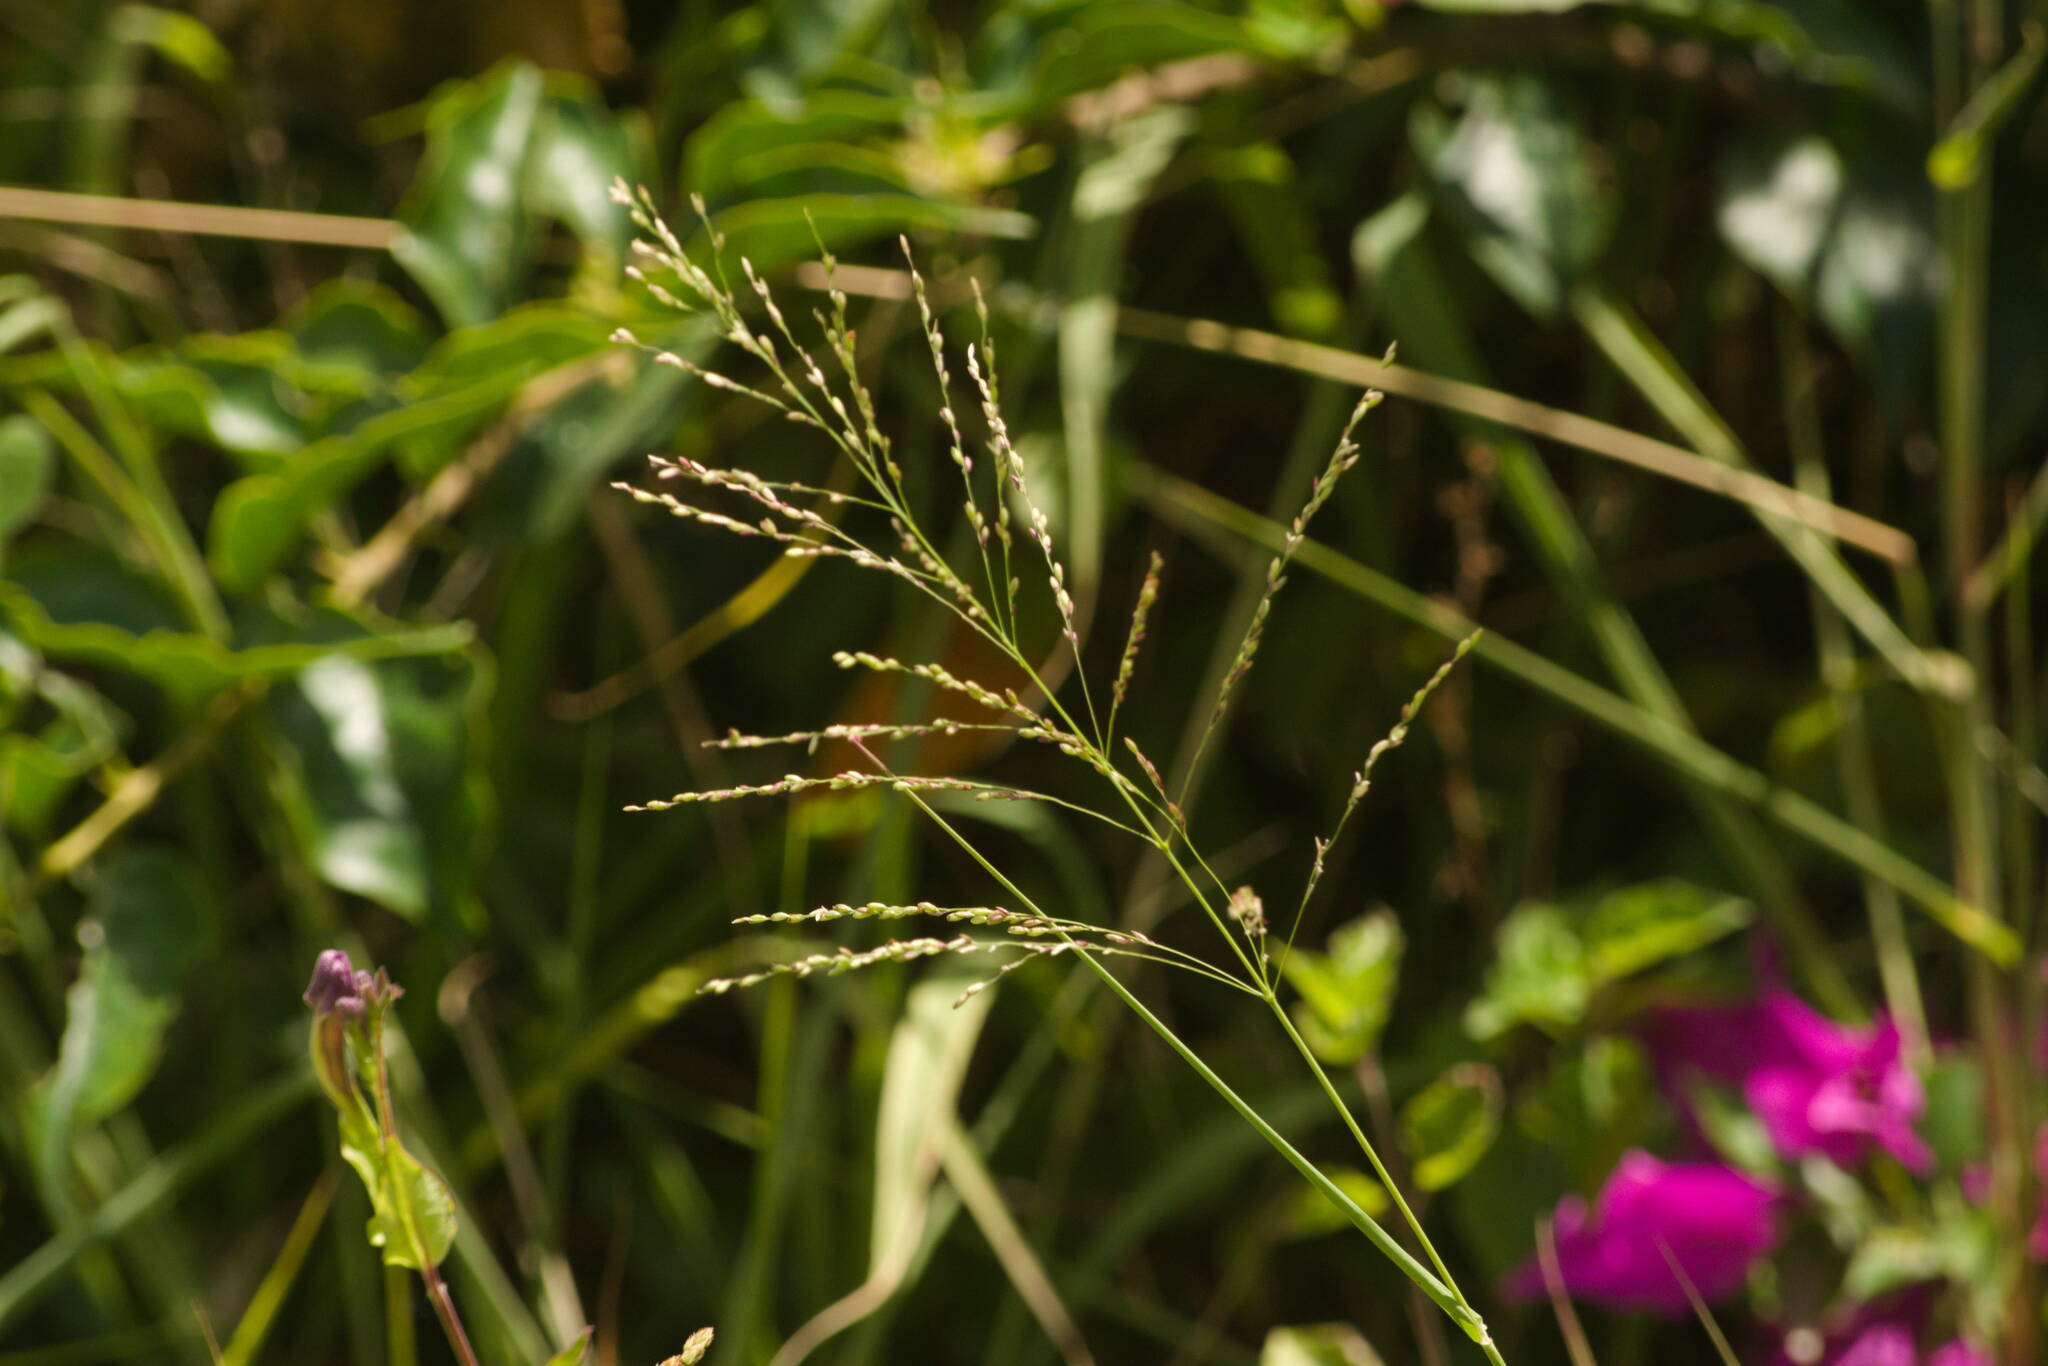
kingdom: Plantae
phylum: Tracheophyta
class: Liliopsida
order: Poales
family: Poaceae
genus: Megathyrsus
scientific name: Megathyrsus maximus
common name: Guineagrass
